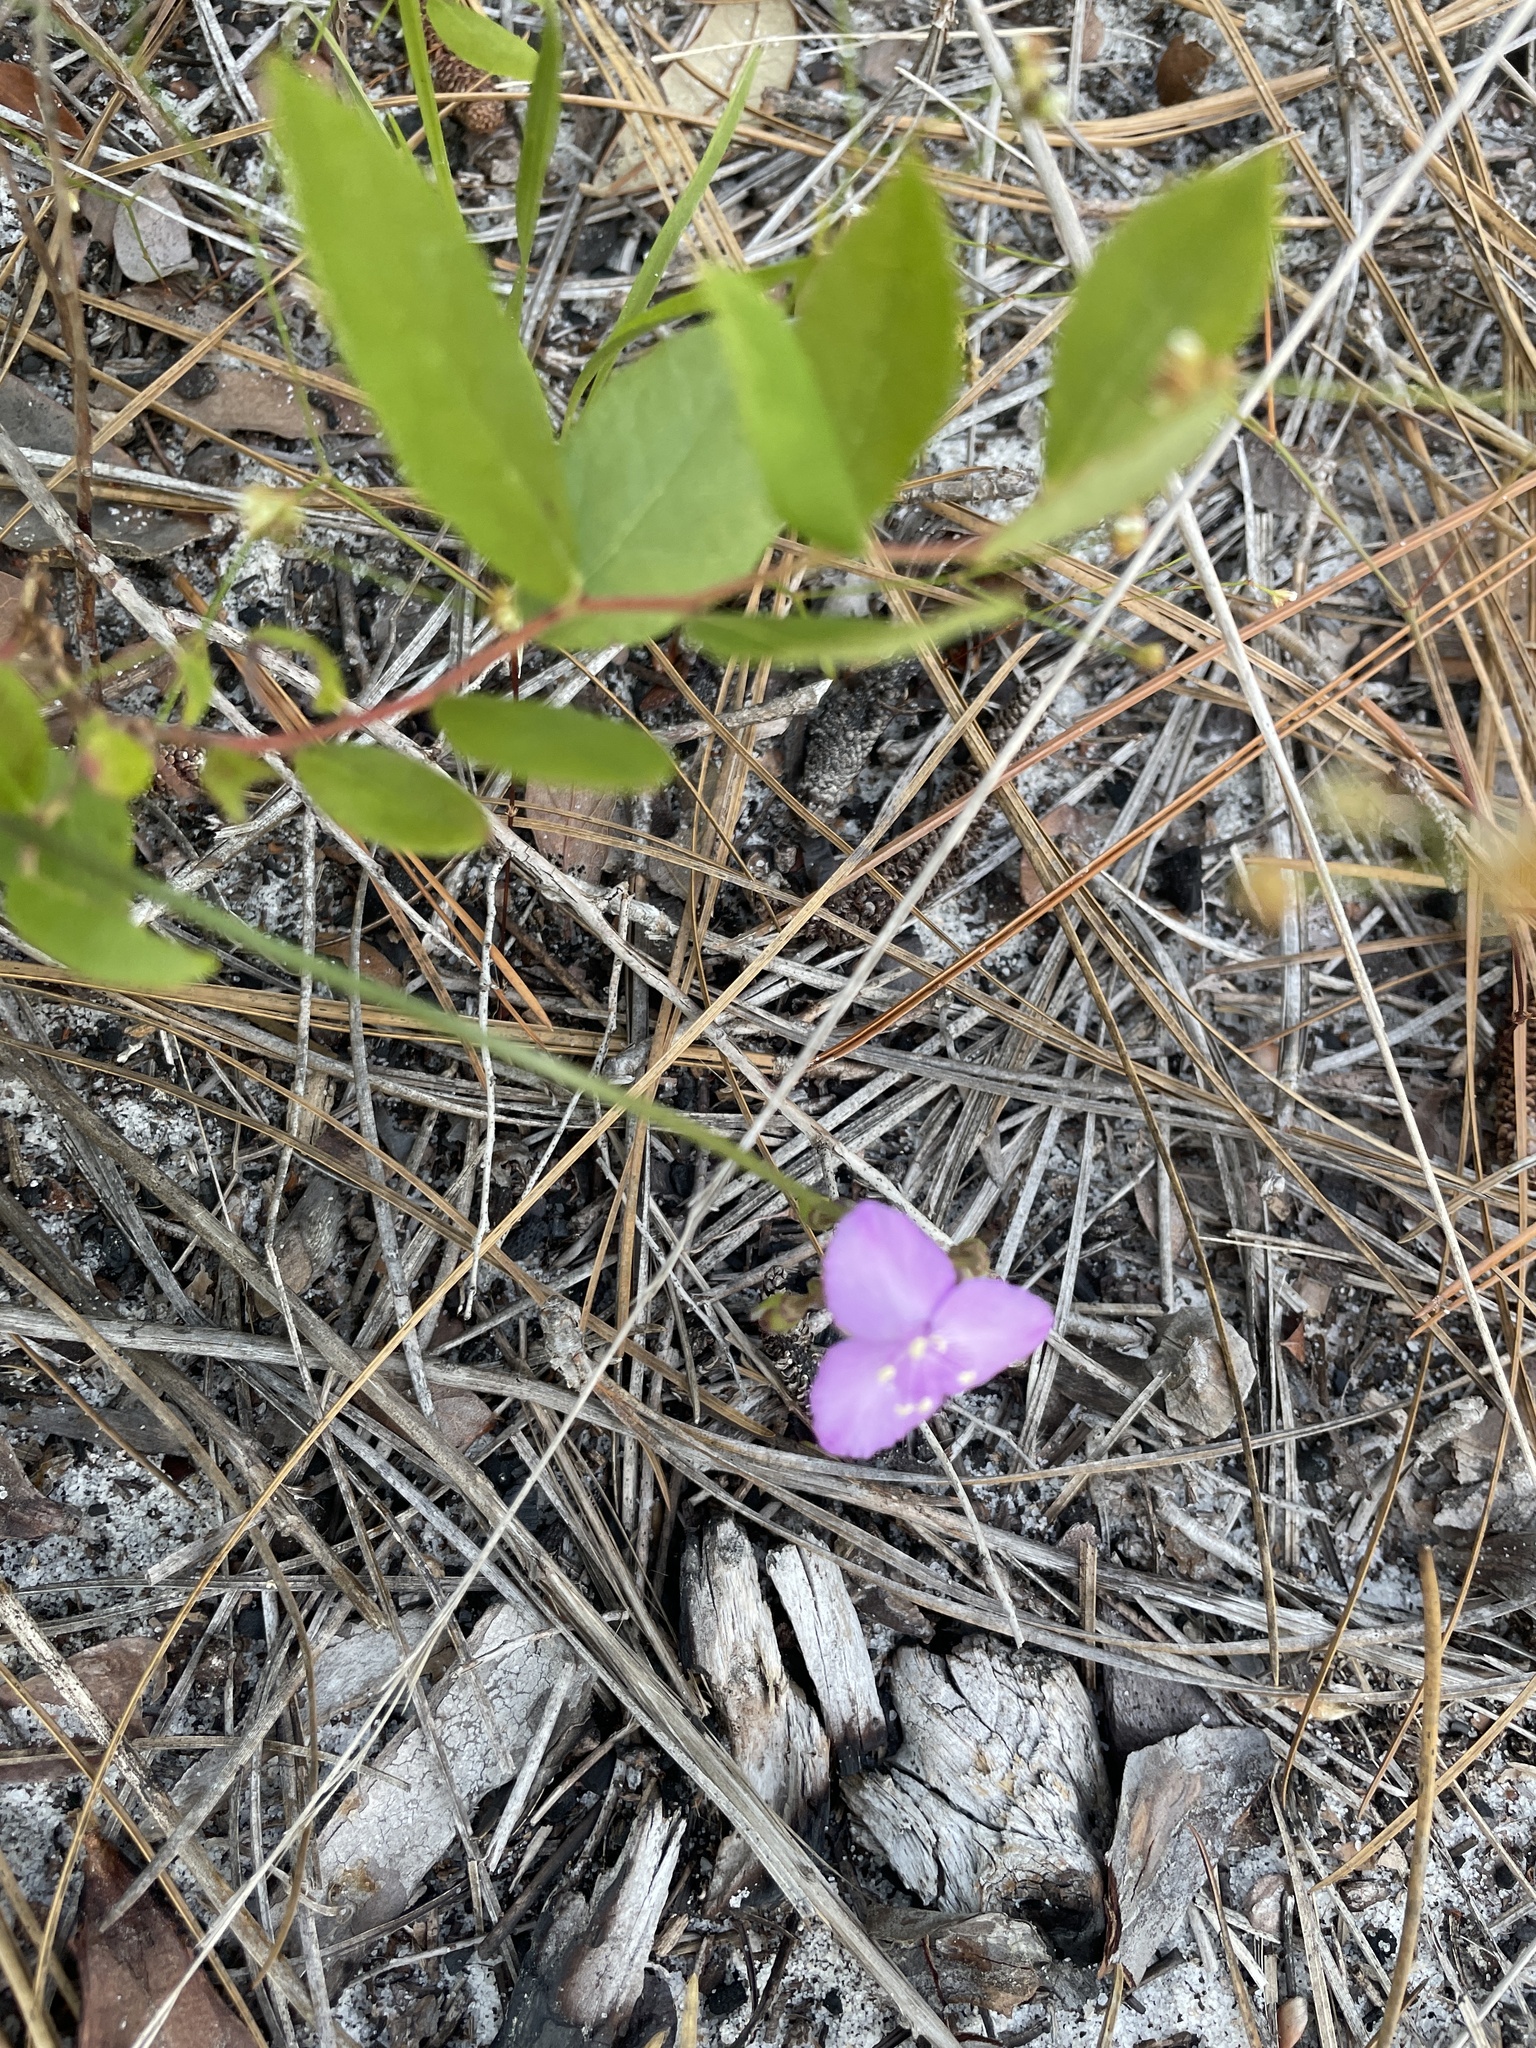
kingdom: Plantae
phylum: Tracheophyta
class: Liliopsida
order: Commelinales
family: Commelinaceae
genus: Callisia
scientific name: Callisia graminea
